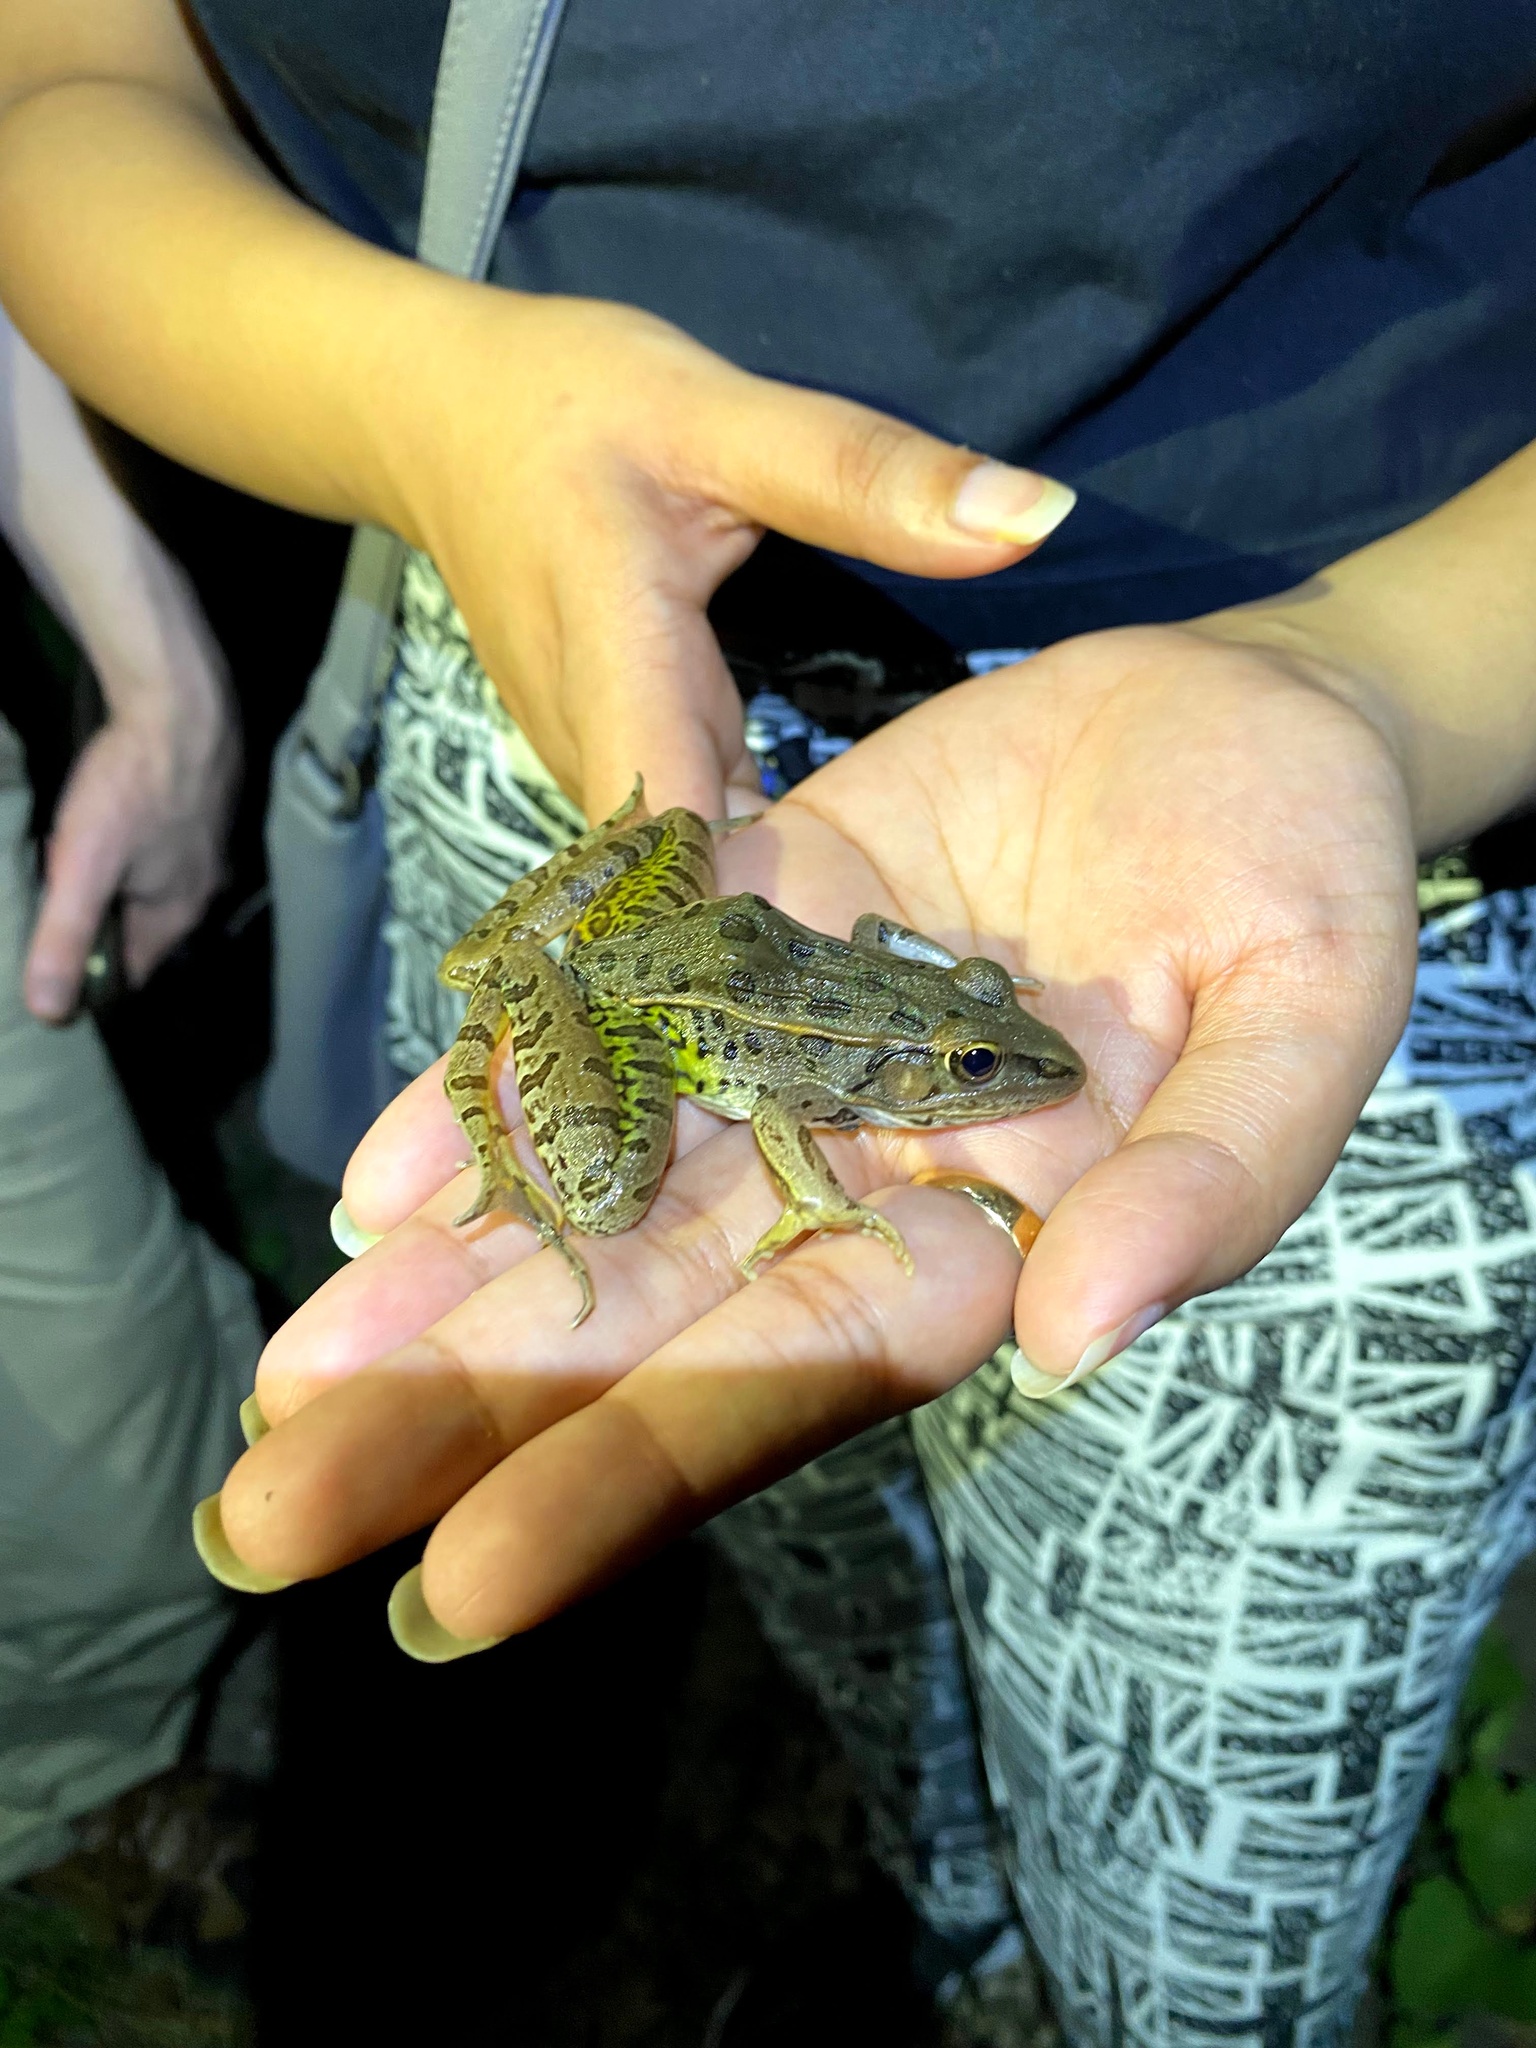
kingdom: Animalia
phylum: Chordata
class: Amphibia
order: Anura
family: Ranidae
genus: Lithobates
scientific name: Lithobates sphenocephalus
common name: Southern leopard frog
